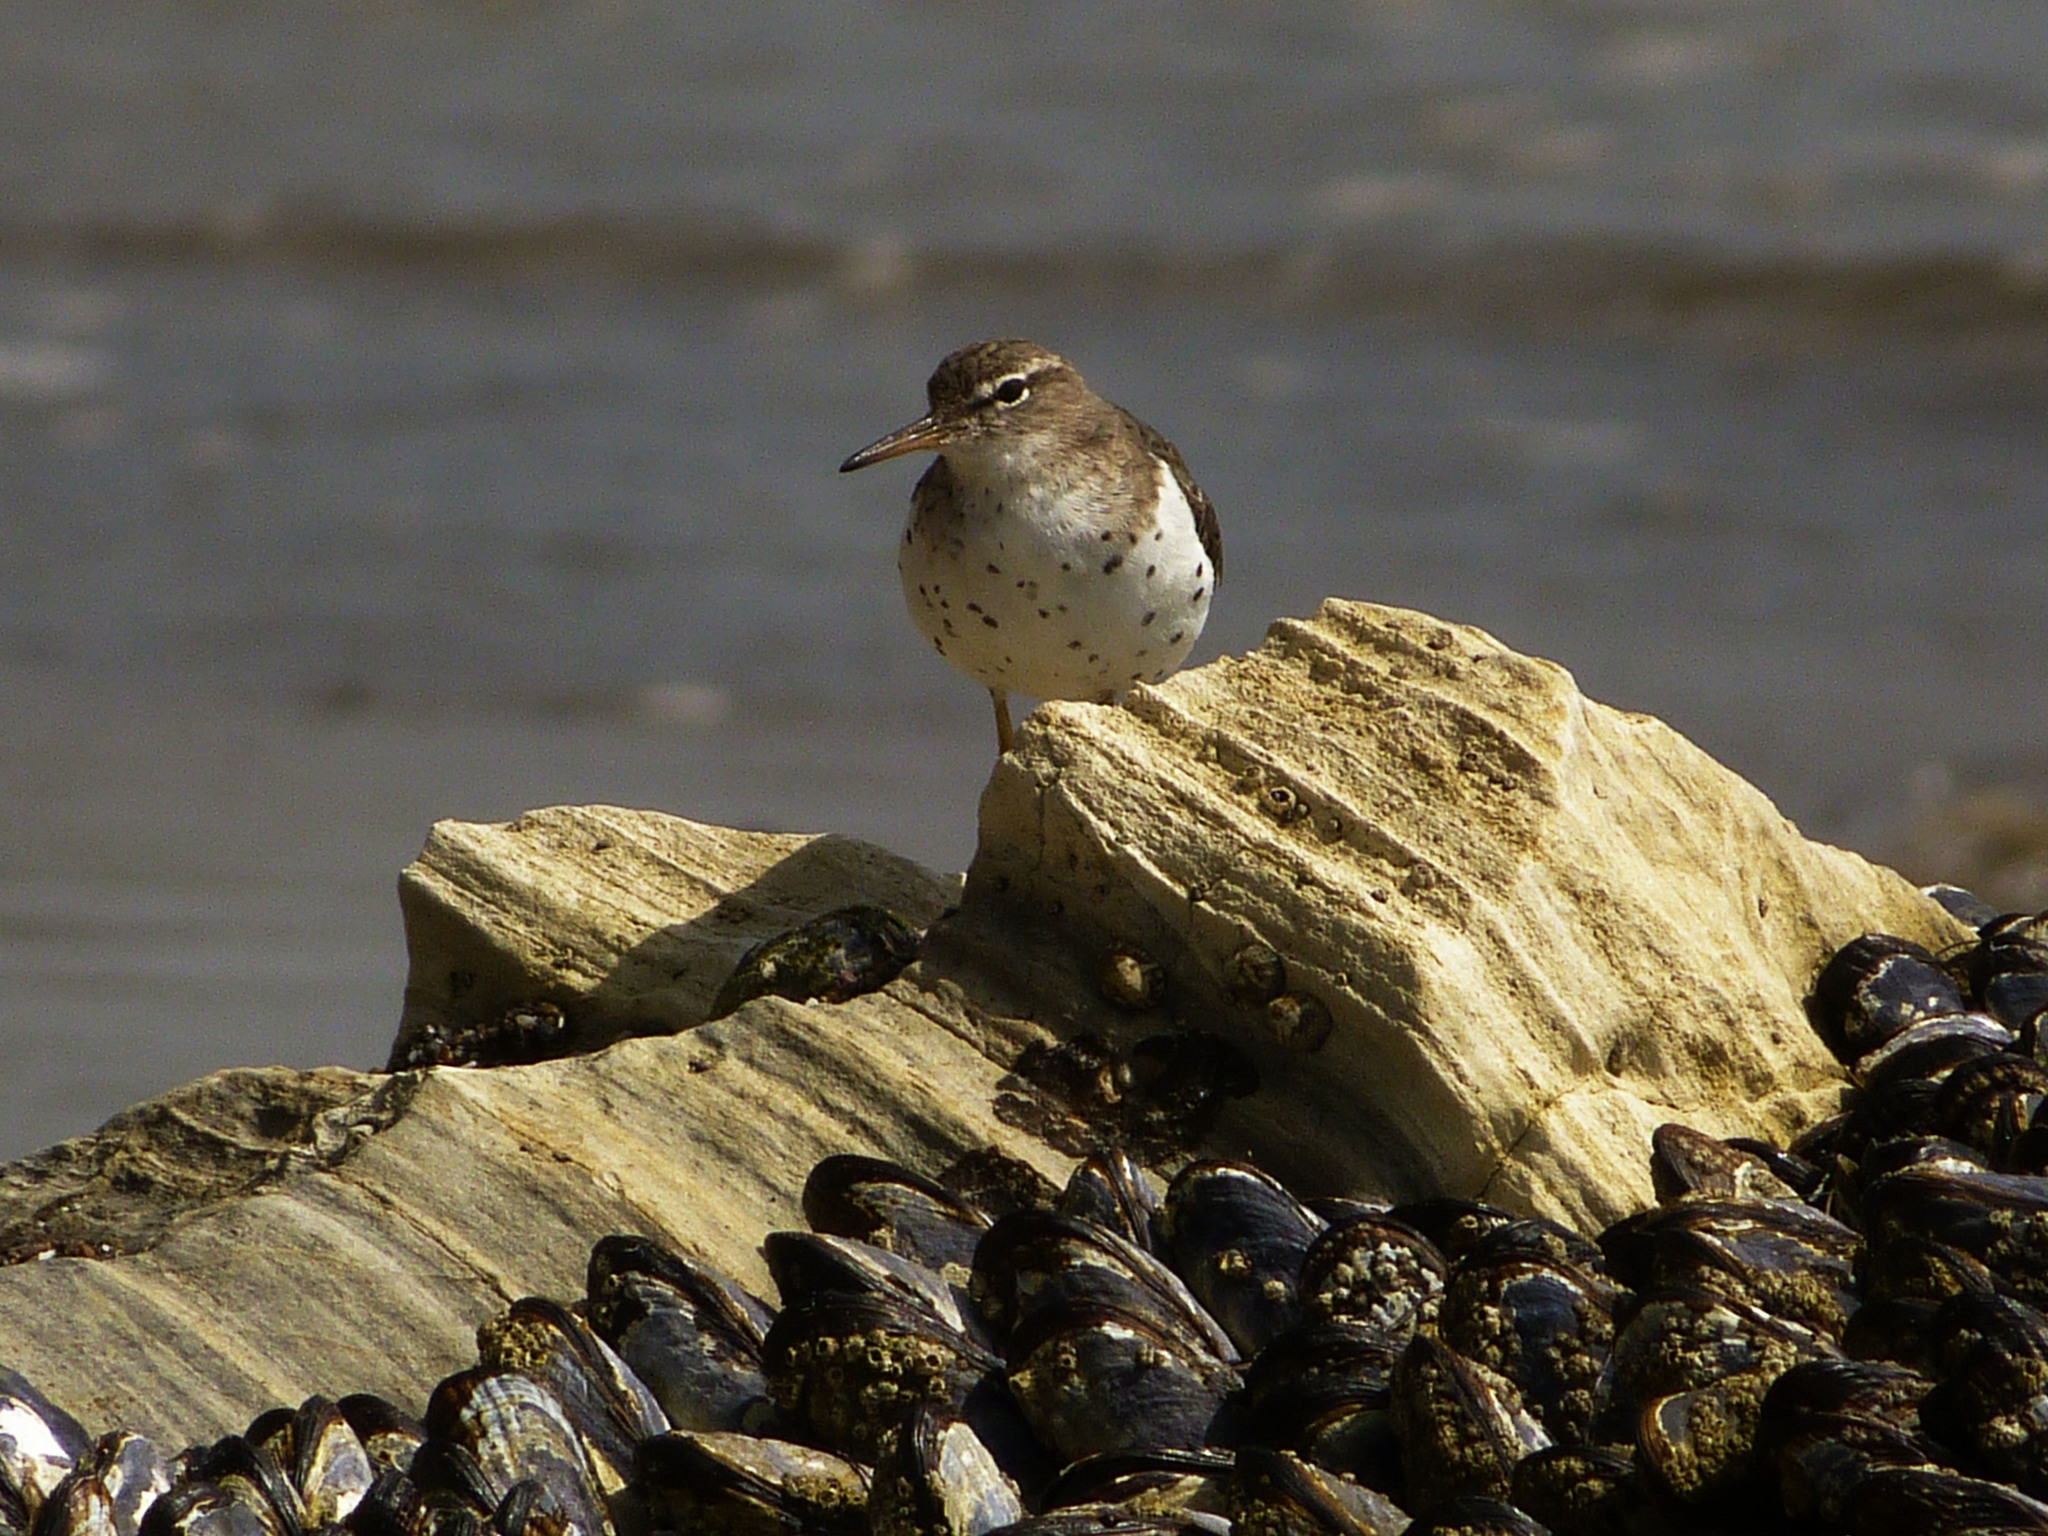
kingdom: Animalia
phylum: Chordata
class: Aves
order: Charadriiformes
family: Scolopacidae
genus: Actitis
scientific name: Actitis macularius
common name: Spotted sandpiper
